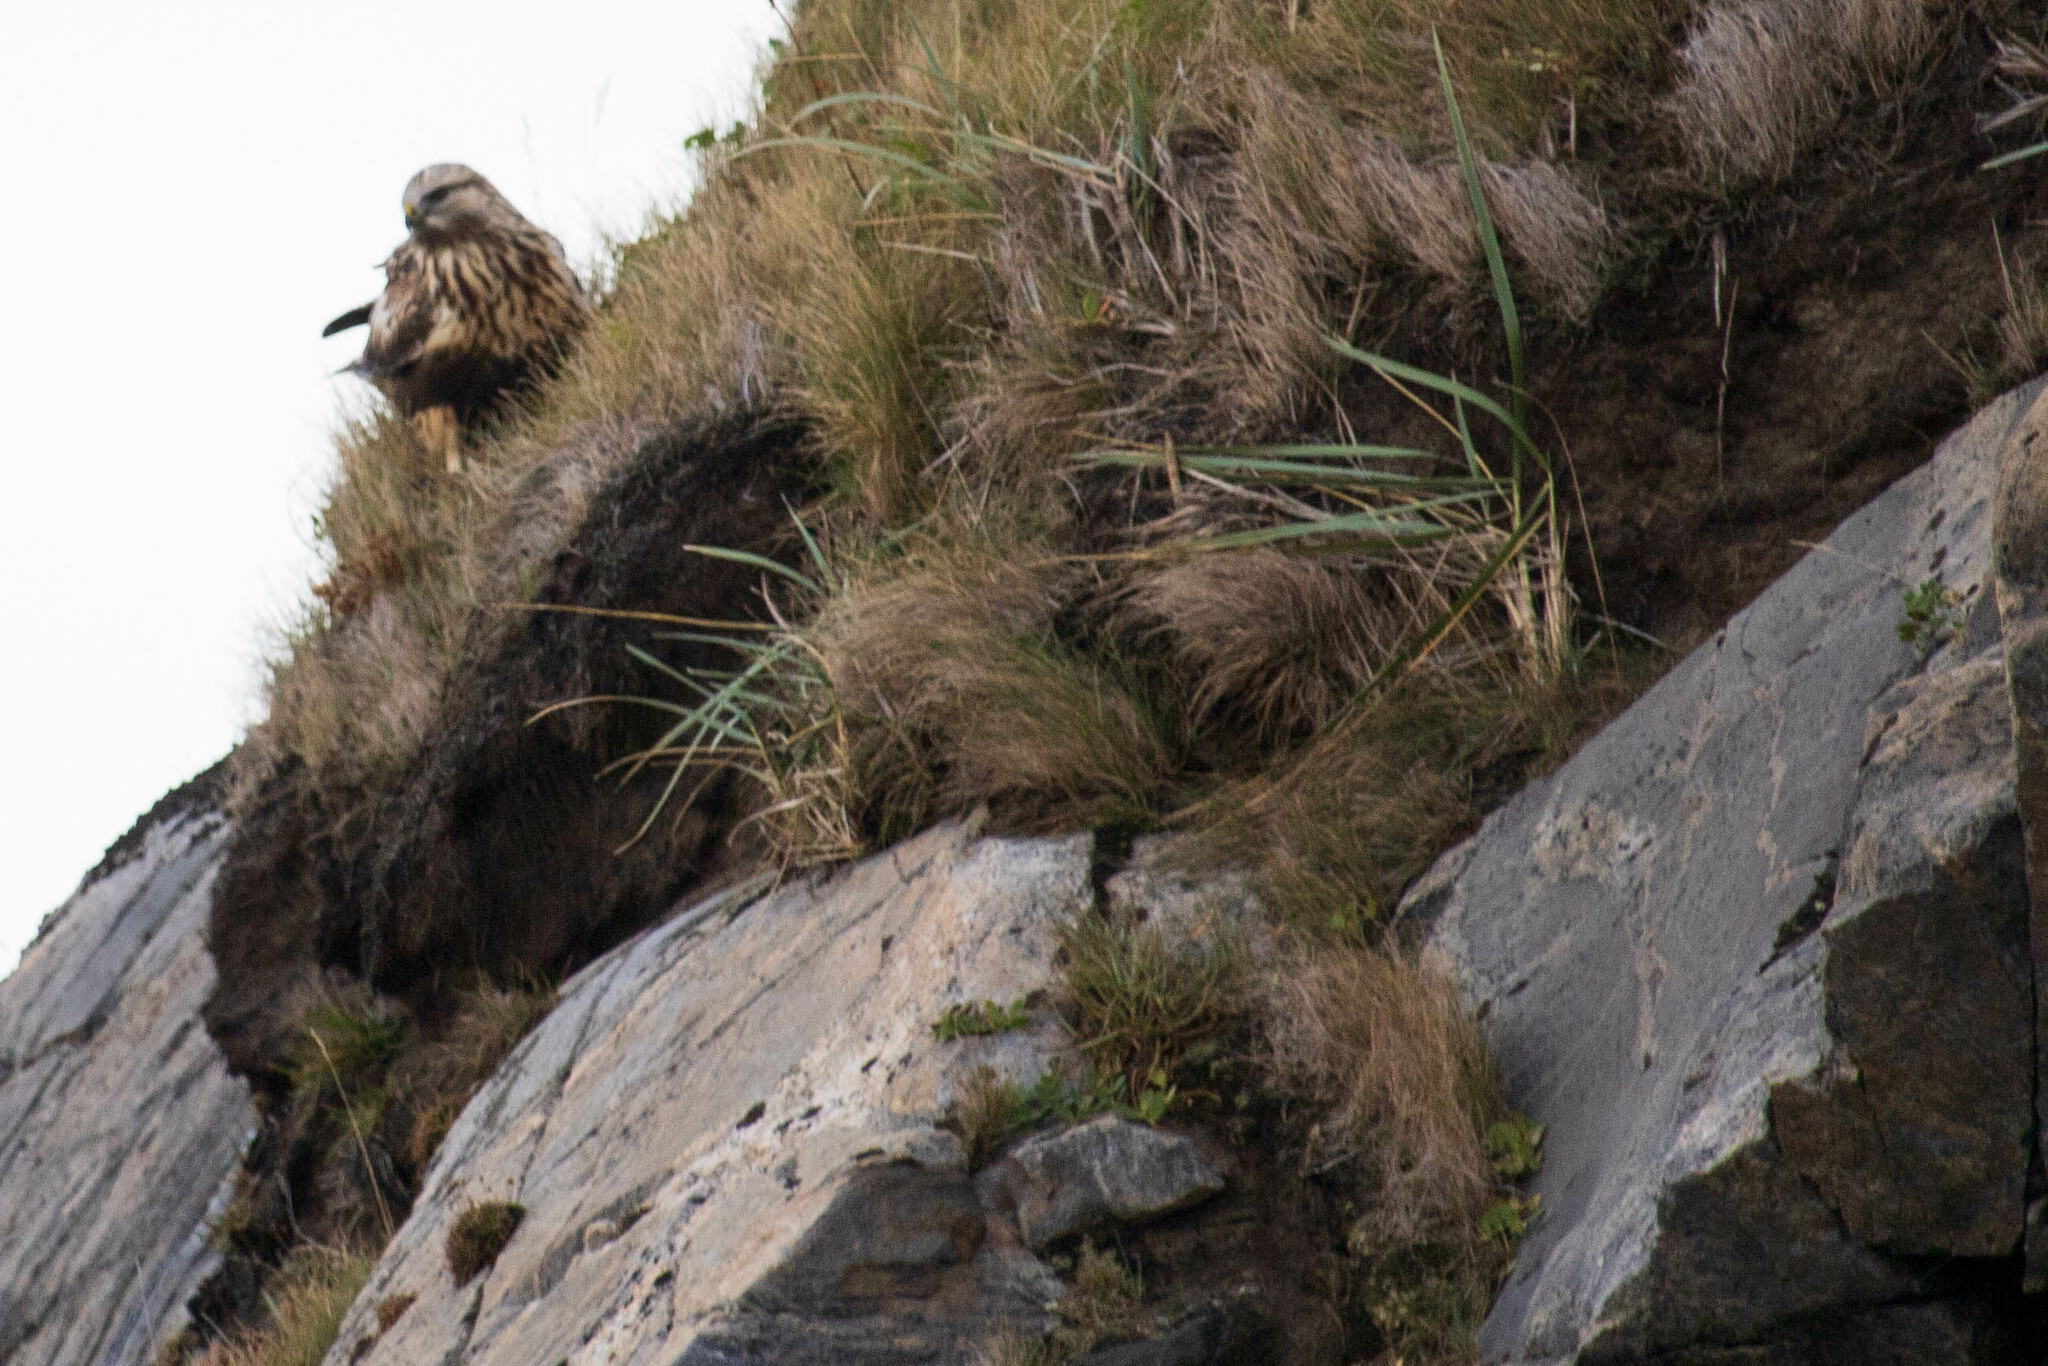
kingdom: Animalia
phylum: Chordata
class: Aves
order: Accipitriformes
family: Accipitridae
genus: Buteo
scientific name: Buteo lagopus
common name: Rough-legged buzzard
